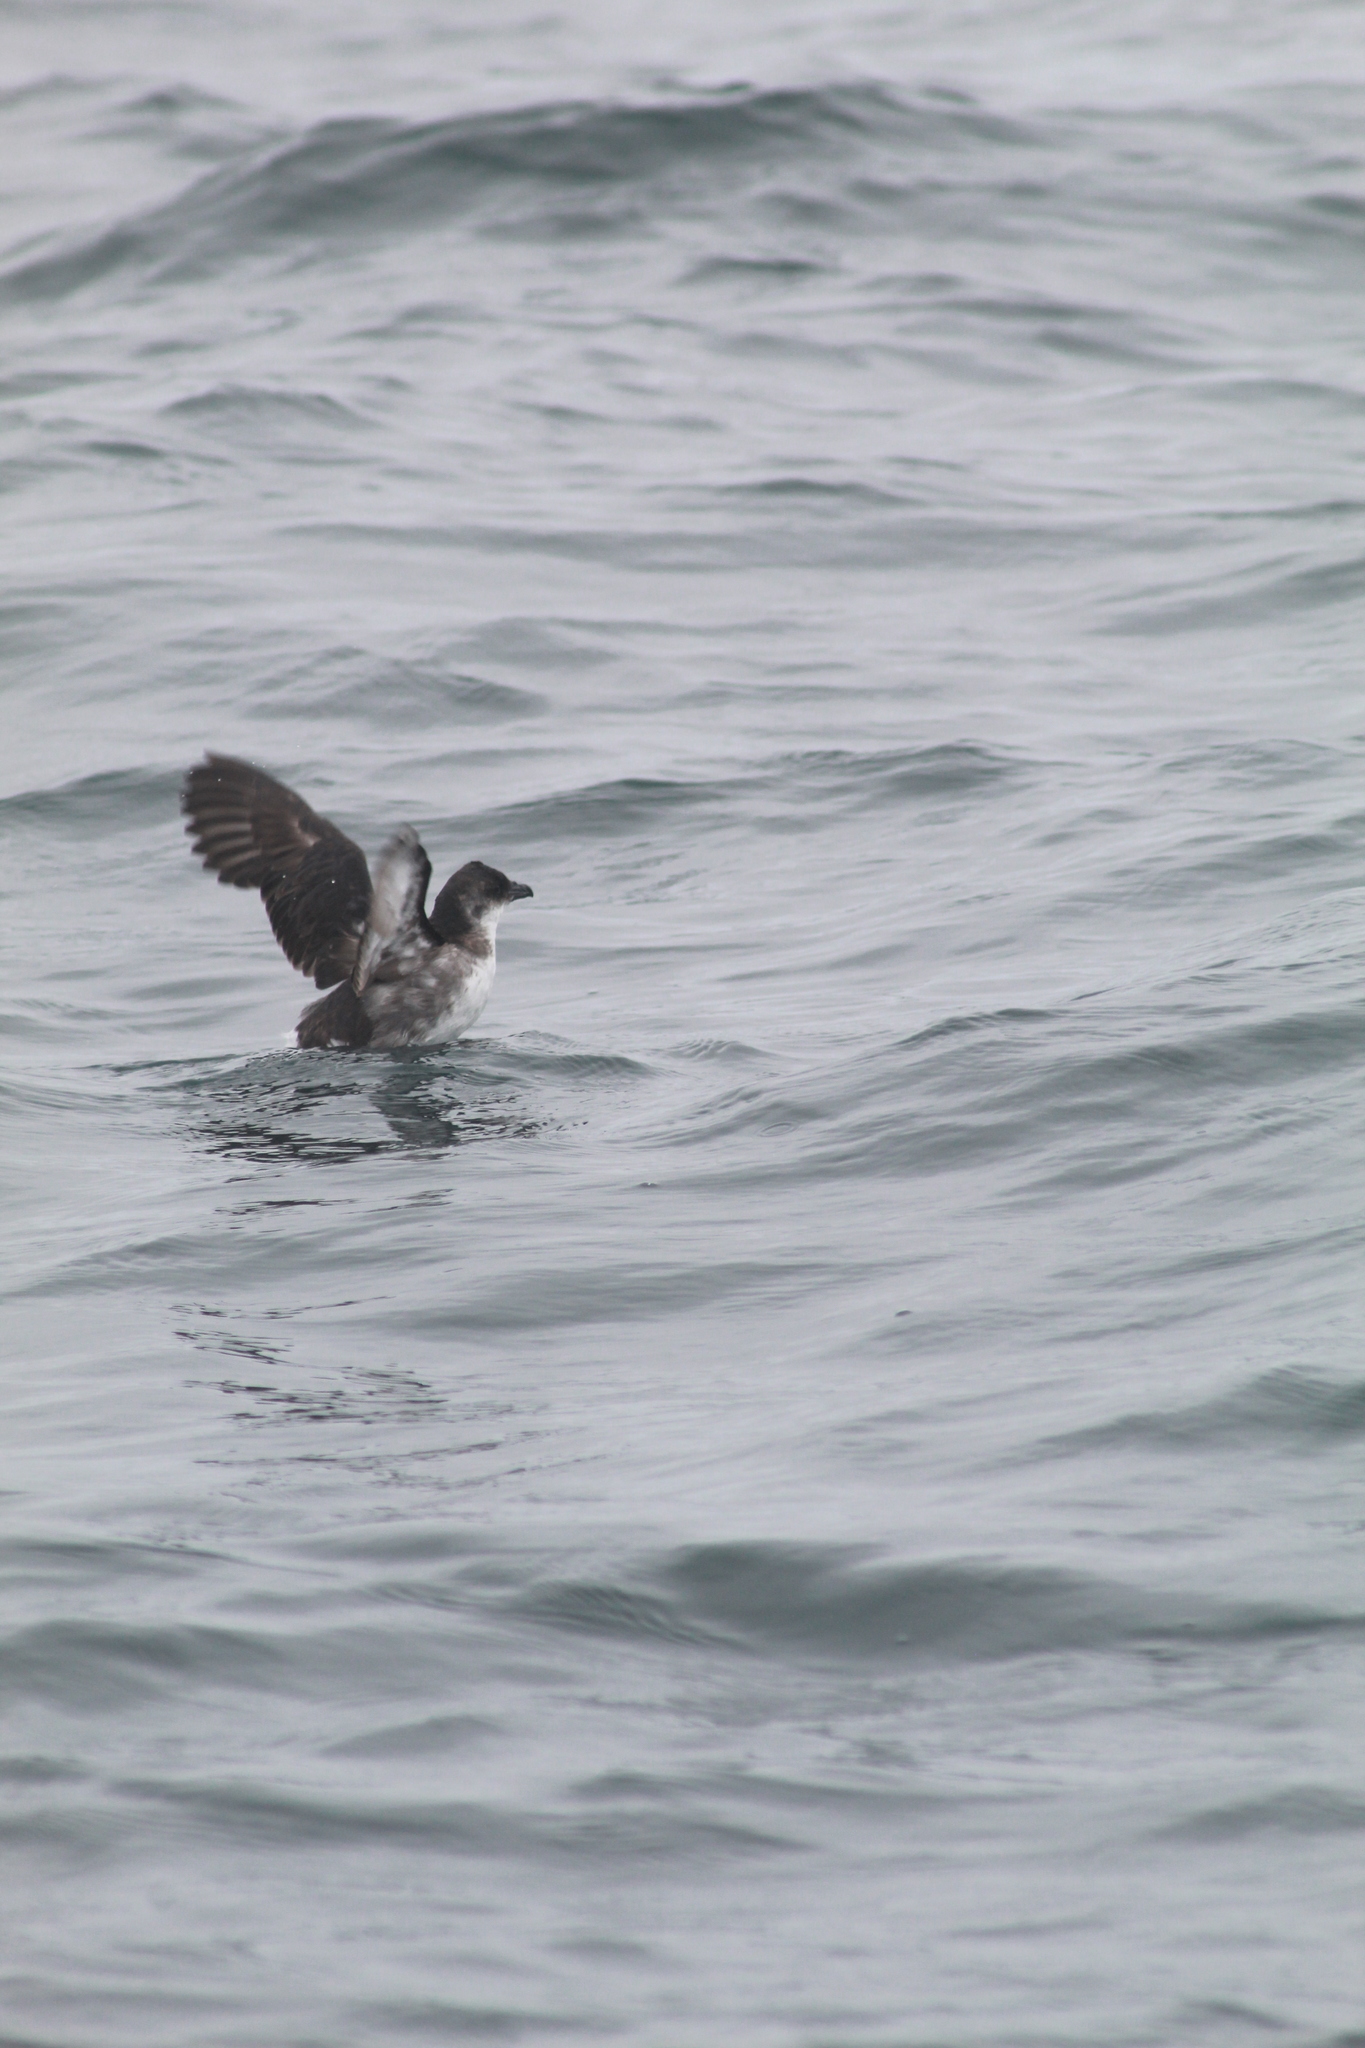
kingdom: Animalia
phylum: Chordata
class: Aves
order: Procellariiformes
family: Pelecanoididae
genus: Pelecanoides
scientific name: Pelecanoides garnotii
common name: Peruvian diving-petrel
